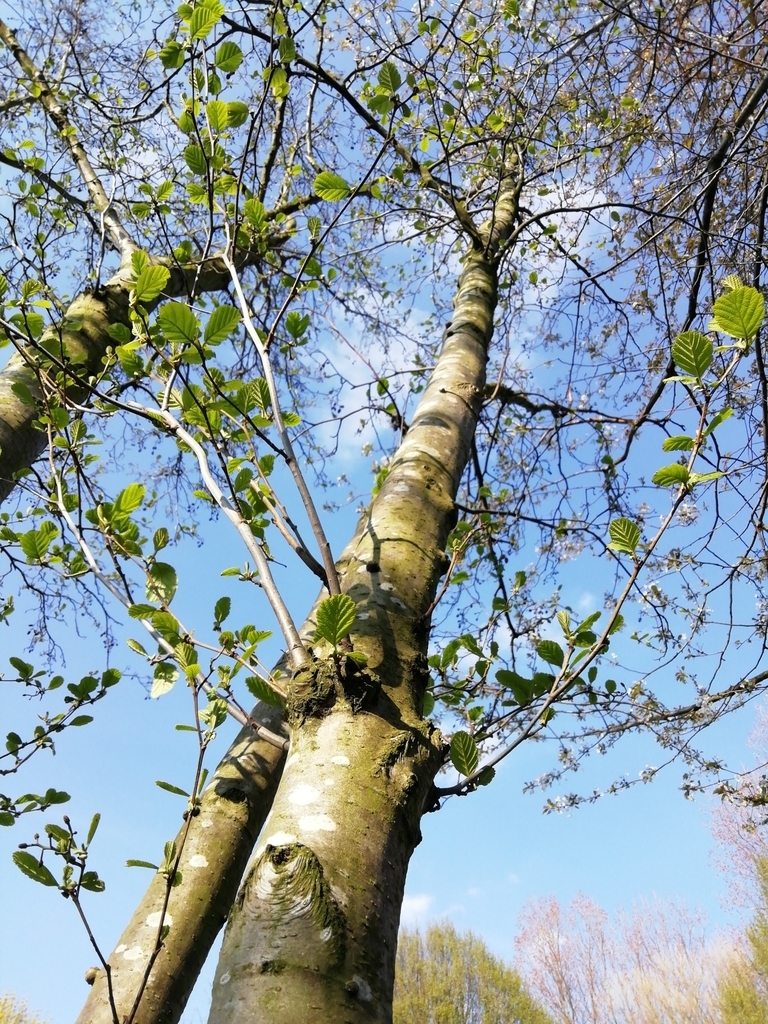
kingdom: Plantae
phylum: Tracheophyta
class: Magnoliopsida
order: Fagales
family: Betulaceae
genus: Alnus
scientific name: Alnus glutinosa
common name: Black alder
